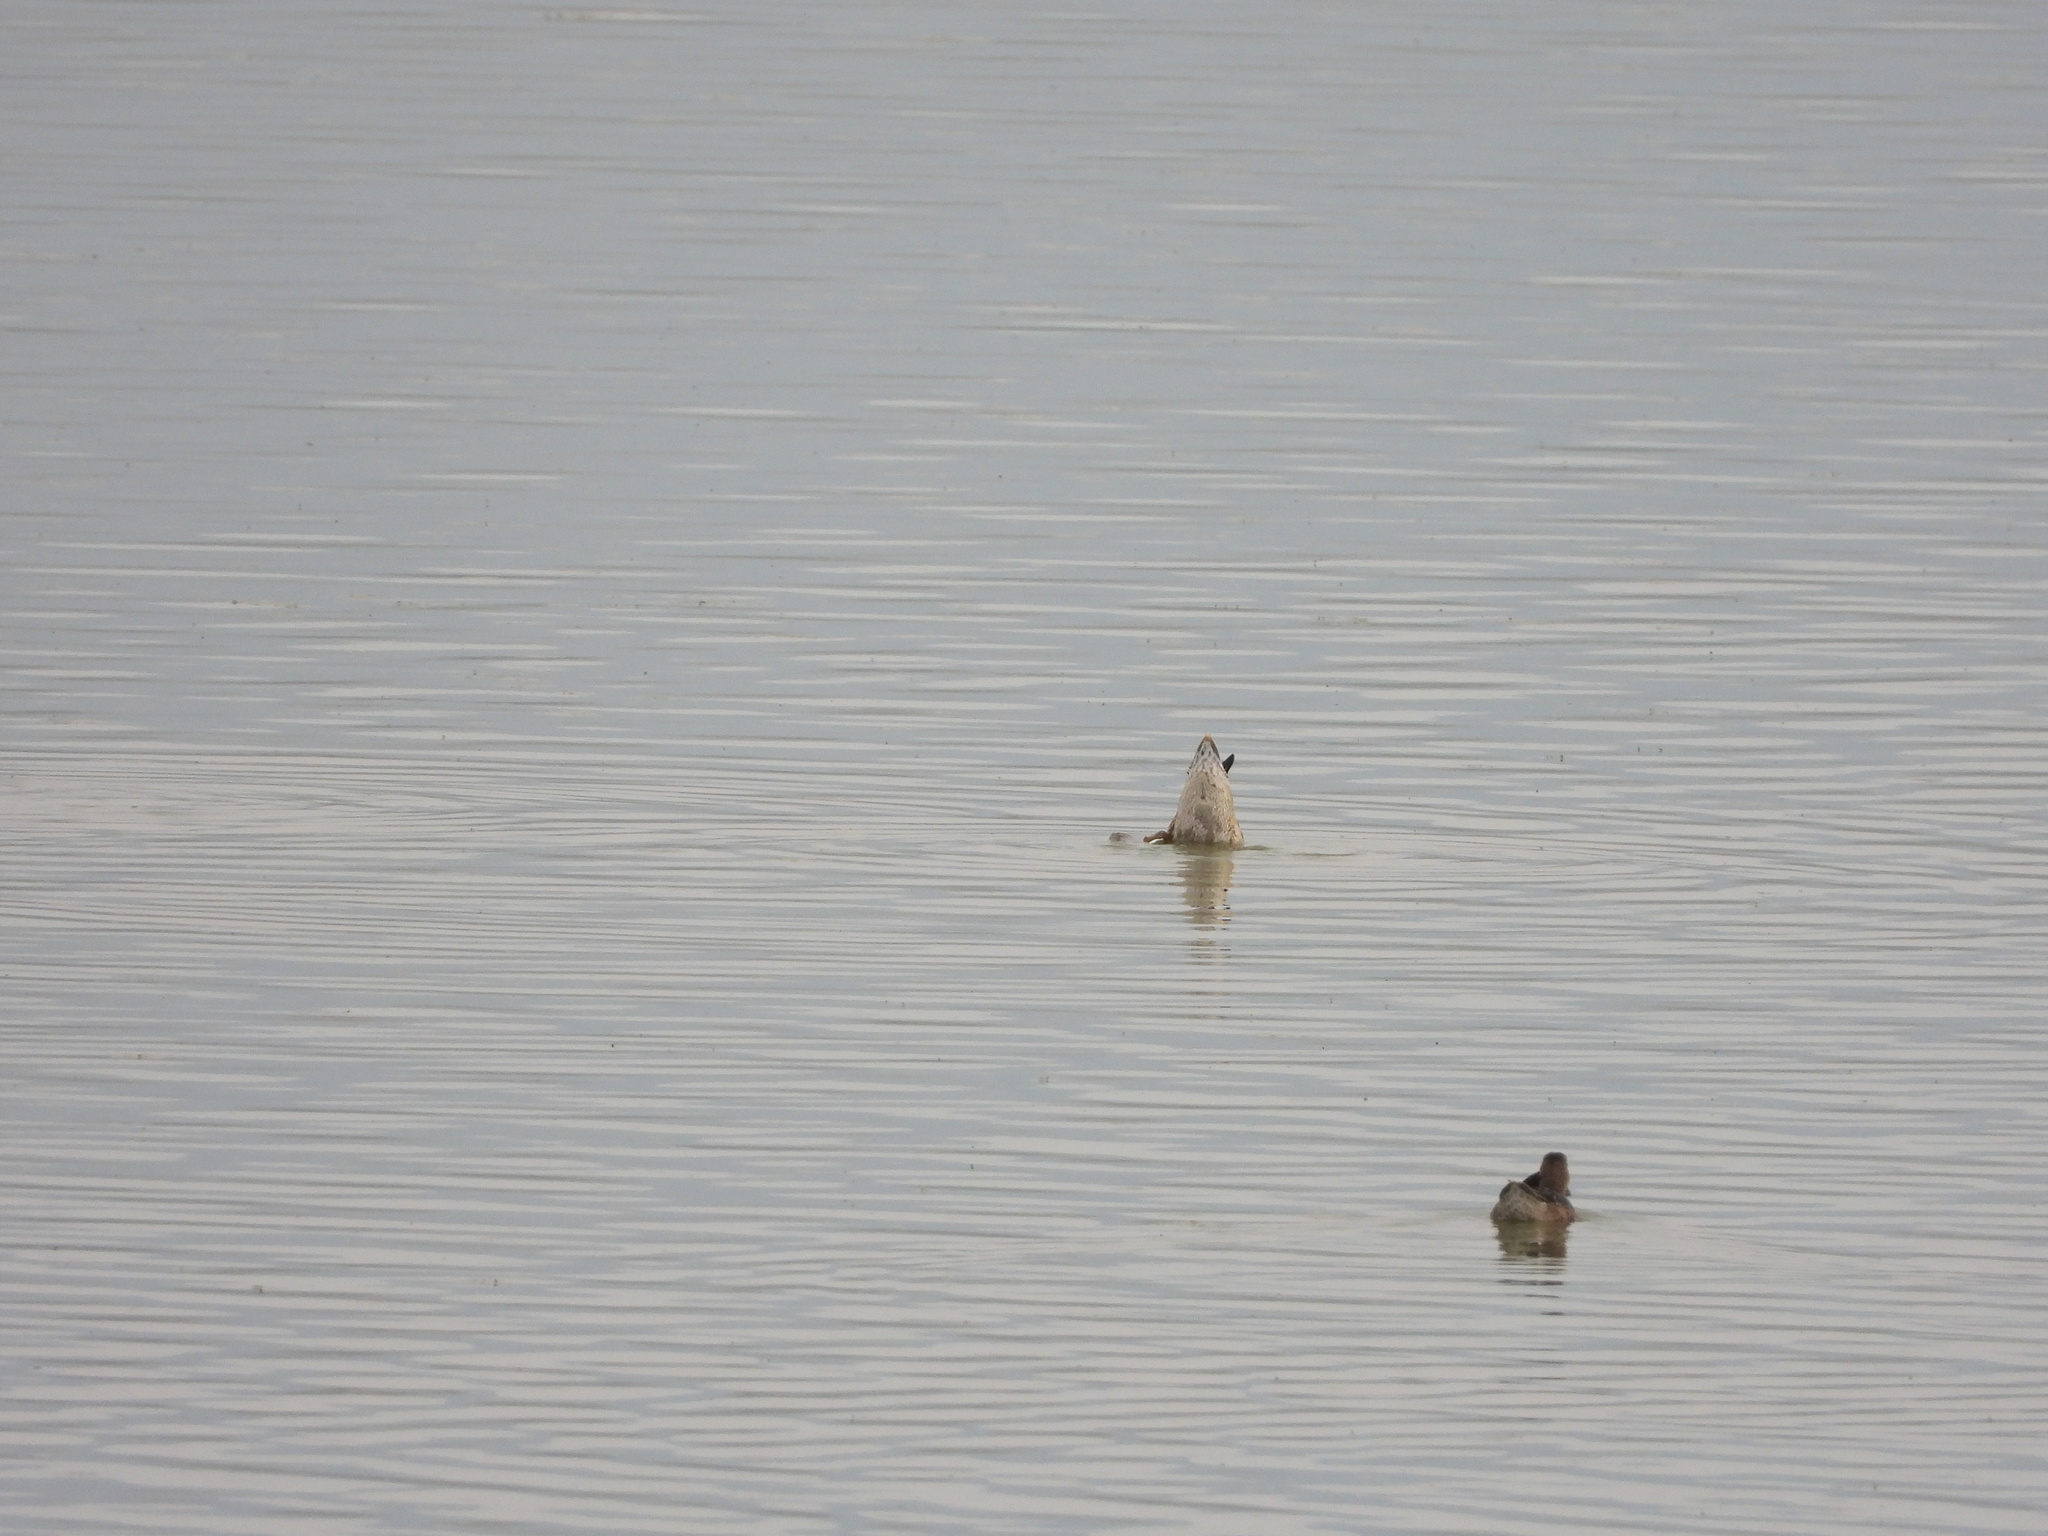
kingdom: Animalia
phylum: Chordata
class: Aves
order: Anseriformes
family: Anatidae
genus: Anas
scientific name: Anas crecca
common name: Eurasian teal
